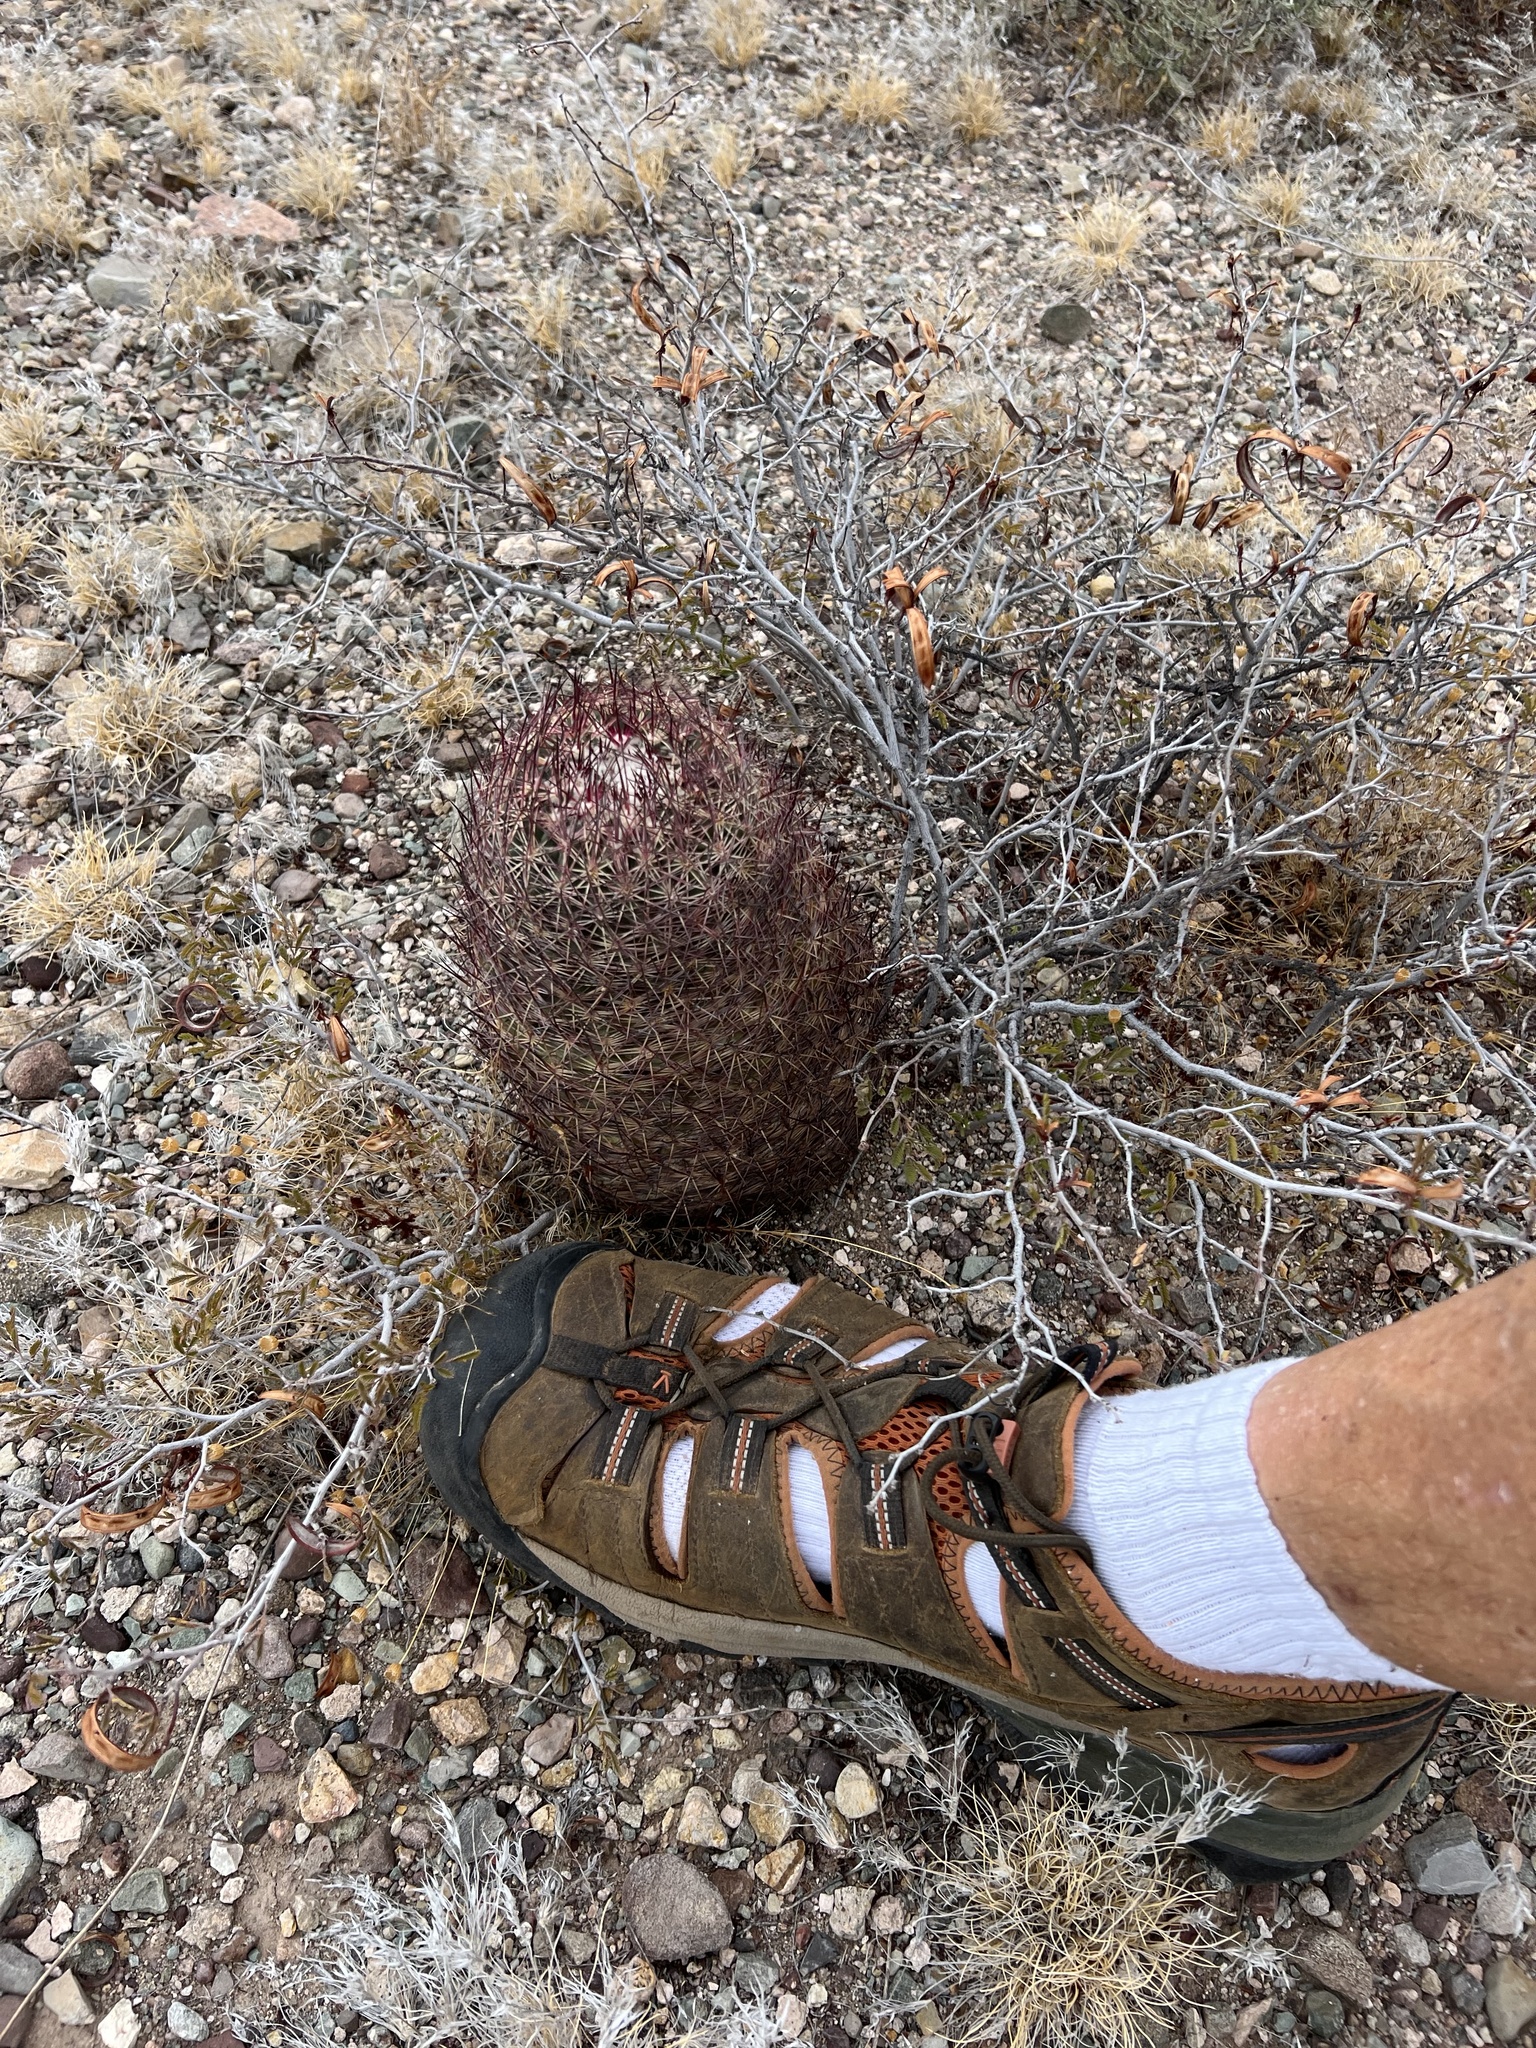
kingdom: Plantae
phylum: Tracheophyta
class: Magnoliopsida
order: Caryophyllales
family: Cactaceae
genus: Sclerocactus
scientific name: Sclerocactus johnsonii
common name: Eight-spine fishhook cactus
